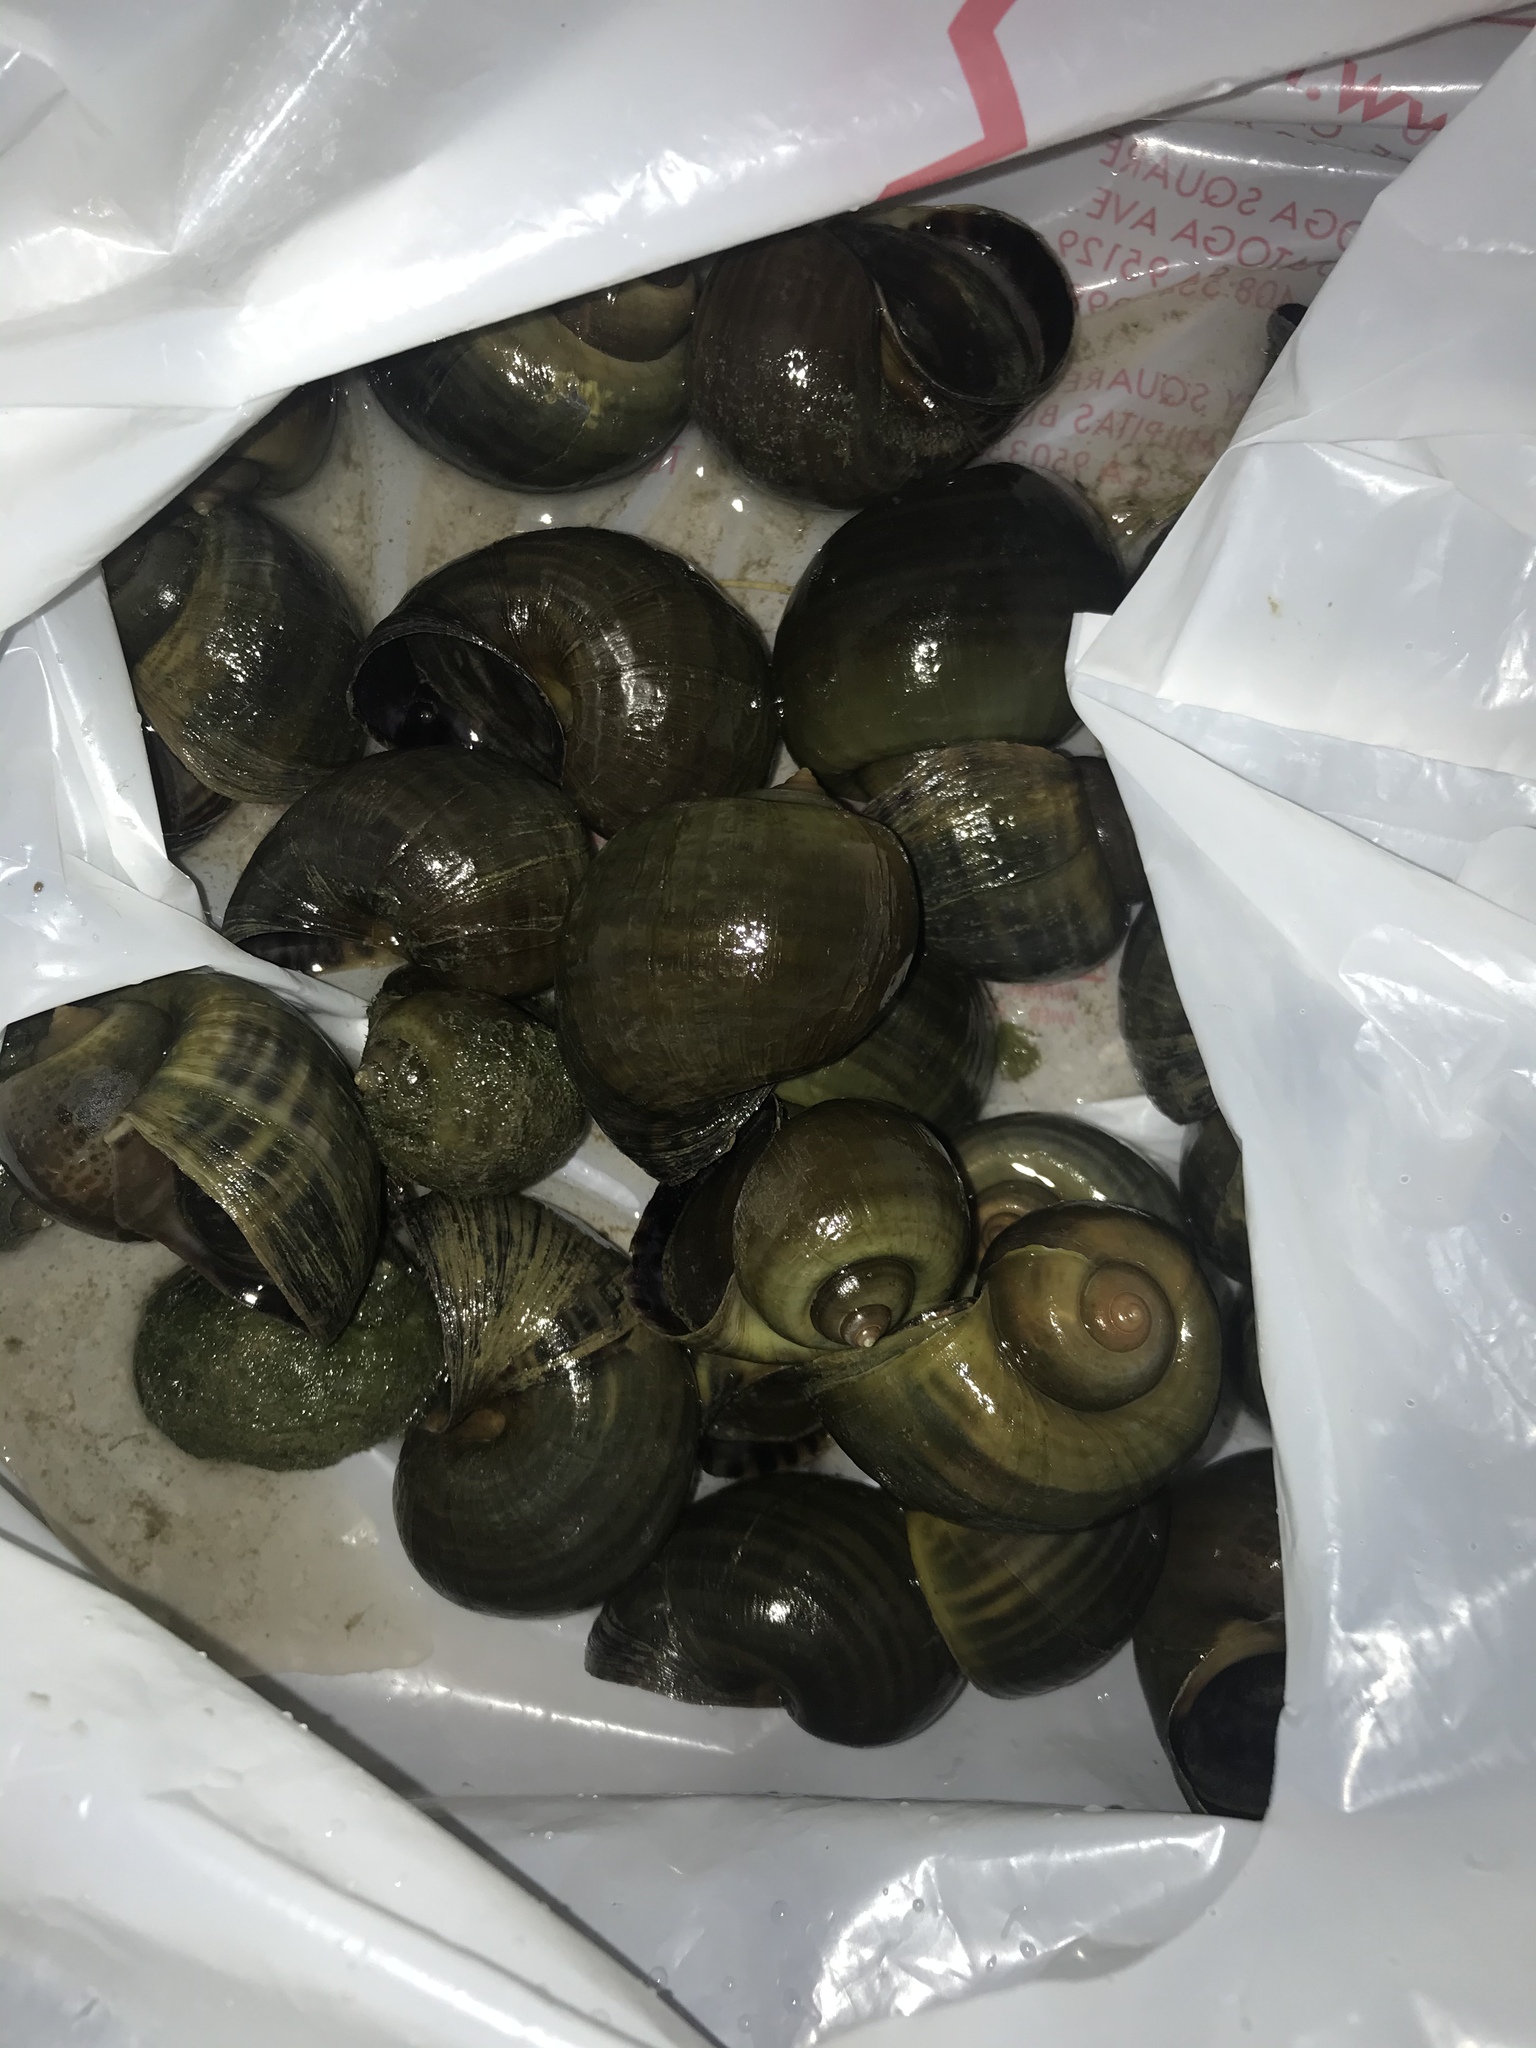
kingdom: Animalia
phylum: Mollusca
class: Gastropoda
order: Architaenioglossa
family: Ampullariidae
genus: Pomacea
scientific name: Pomacea canaliculata
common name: Channeled applesnail
